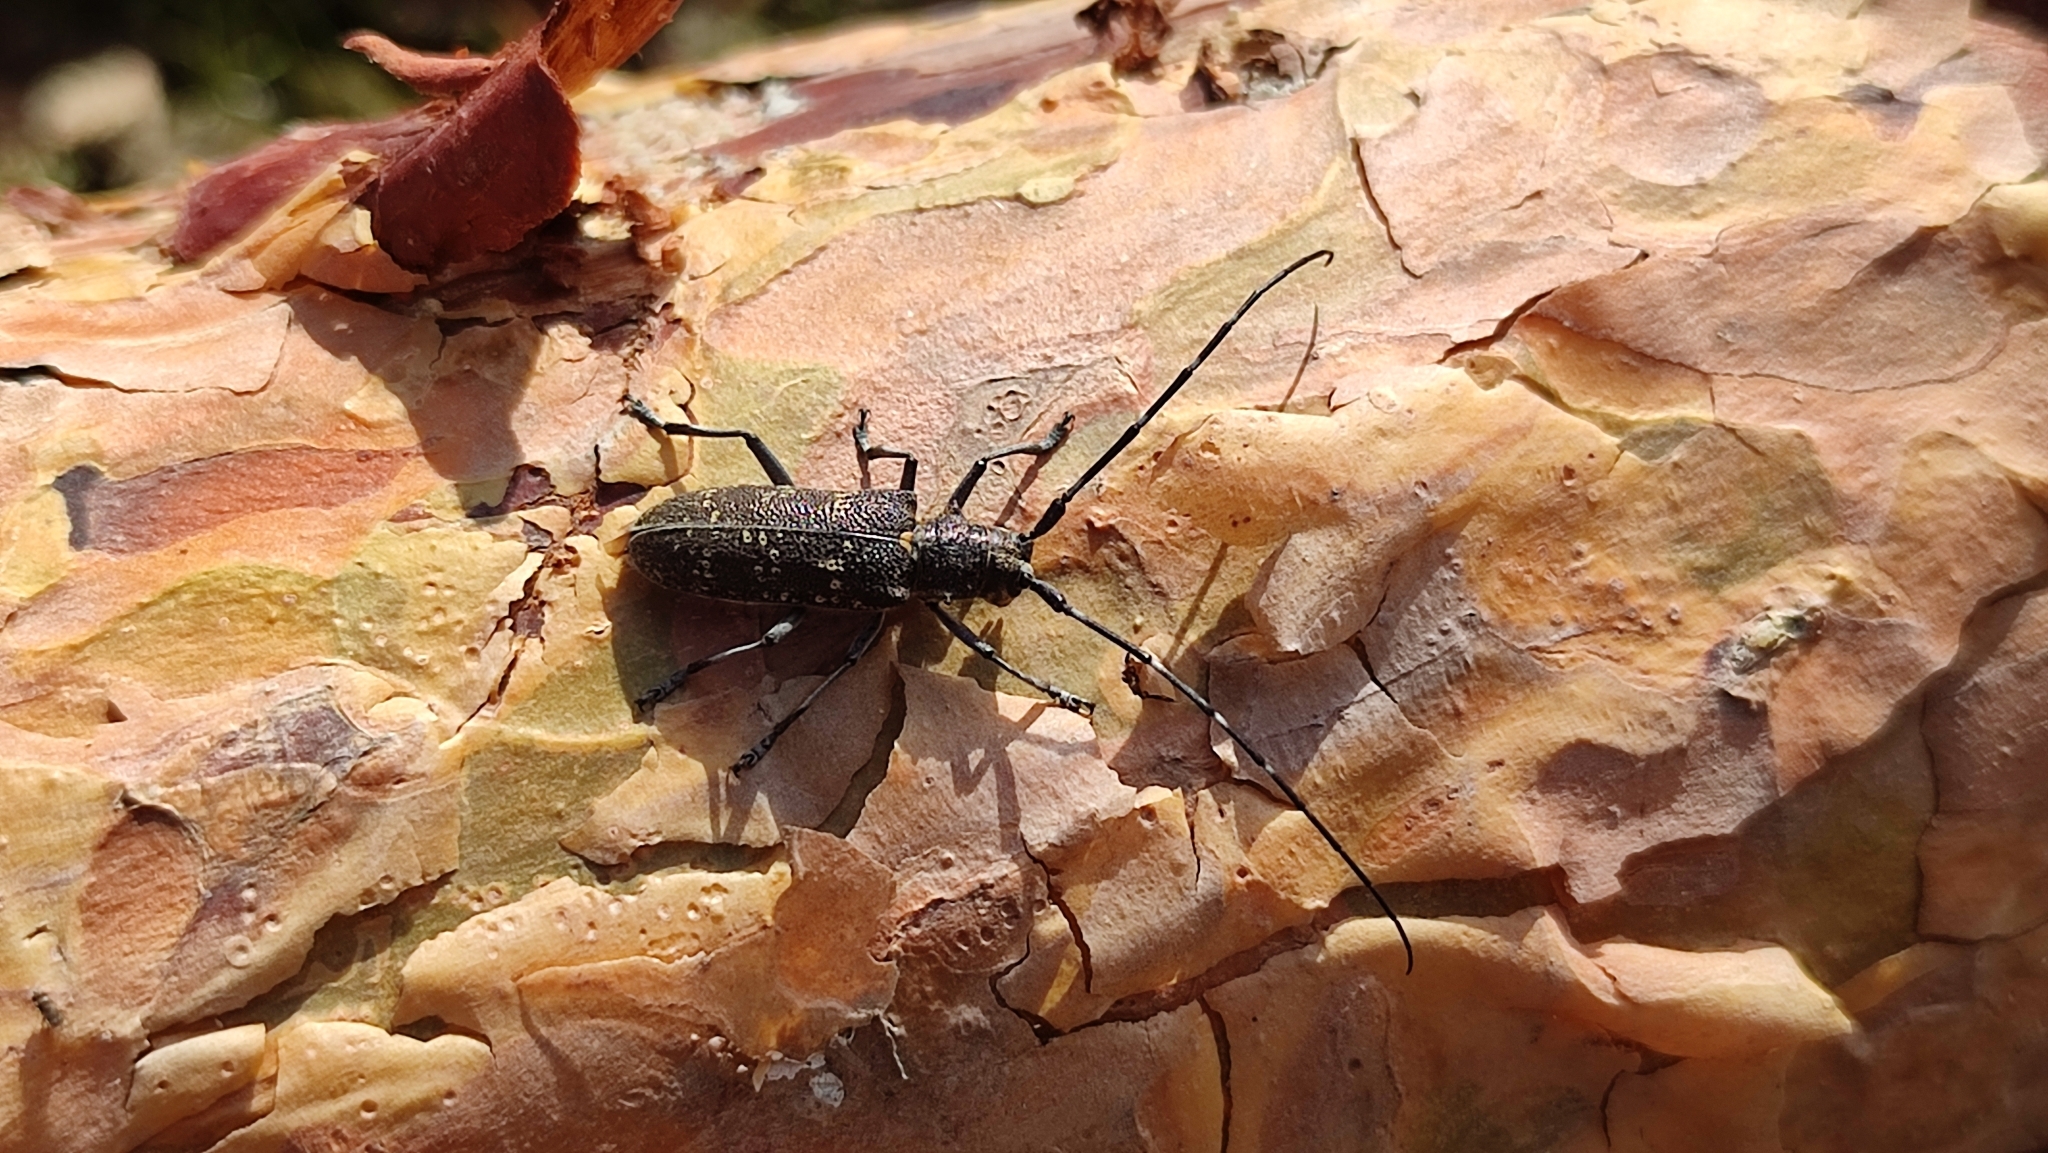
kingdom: Animalia
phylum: Arthropoda
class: Insecta
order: Coleoptera
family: Cerambycidae
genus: Monochamus
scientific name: Monochamus sutor
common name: Pine sawyer
